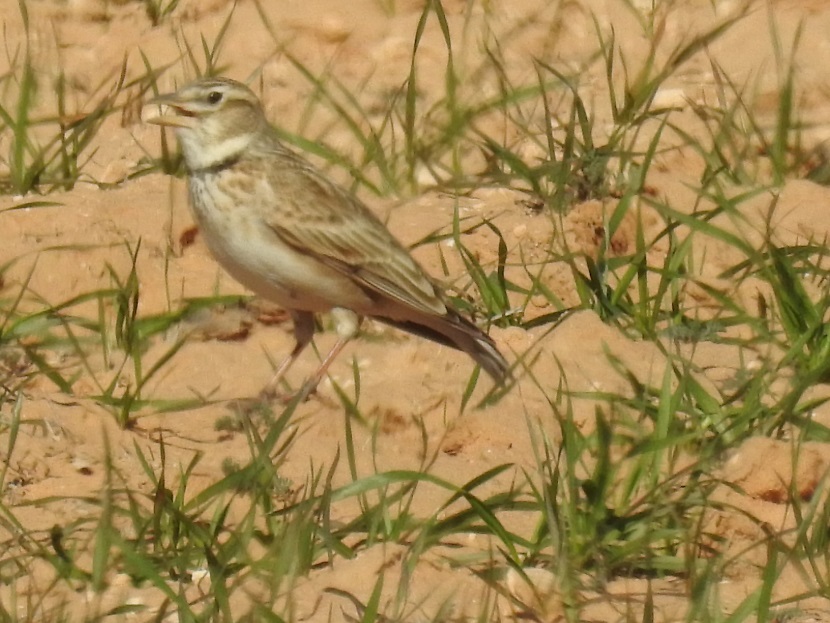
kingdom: Animalia
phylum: Chordata
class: Aves
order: Passeriformes
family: Alaudidae
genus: Melanocorypha
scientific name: Melanocorypha calandra
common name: Calandra lark
